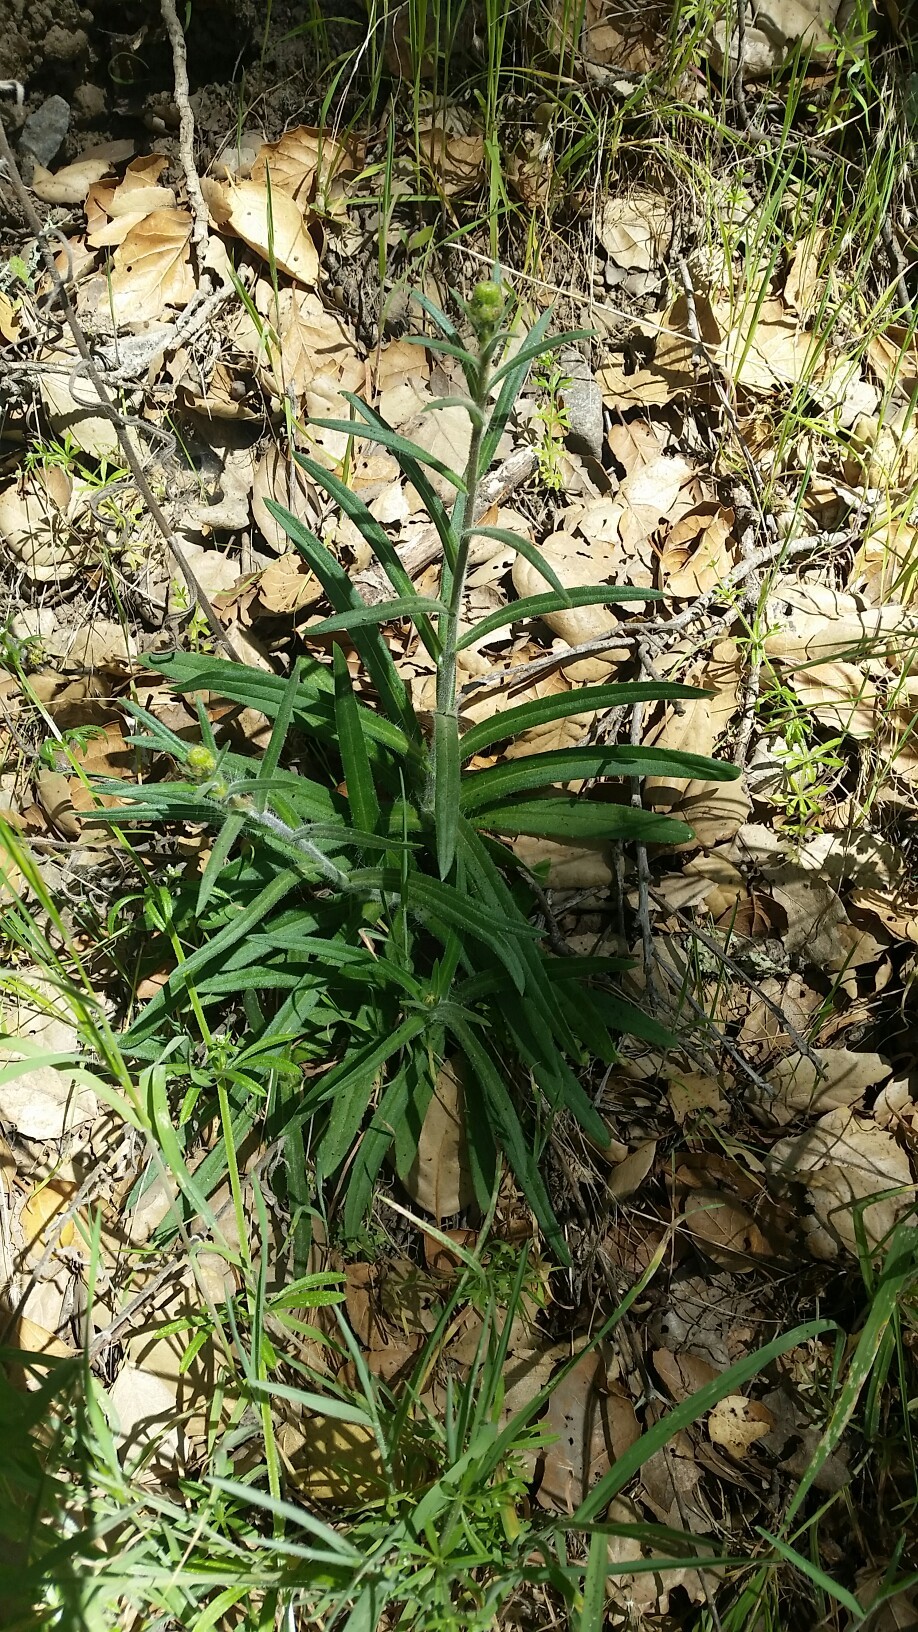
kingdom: Plantae
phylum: Tracheophyta
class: Magnoliopsida
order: Asterales
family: Asteraceae
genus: Anisocarpus
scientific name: Anisocarpus madioides
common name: Woodland madia
